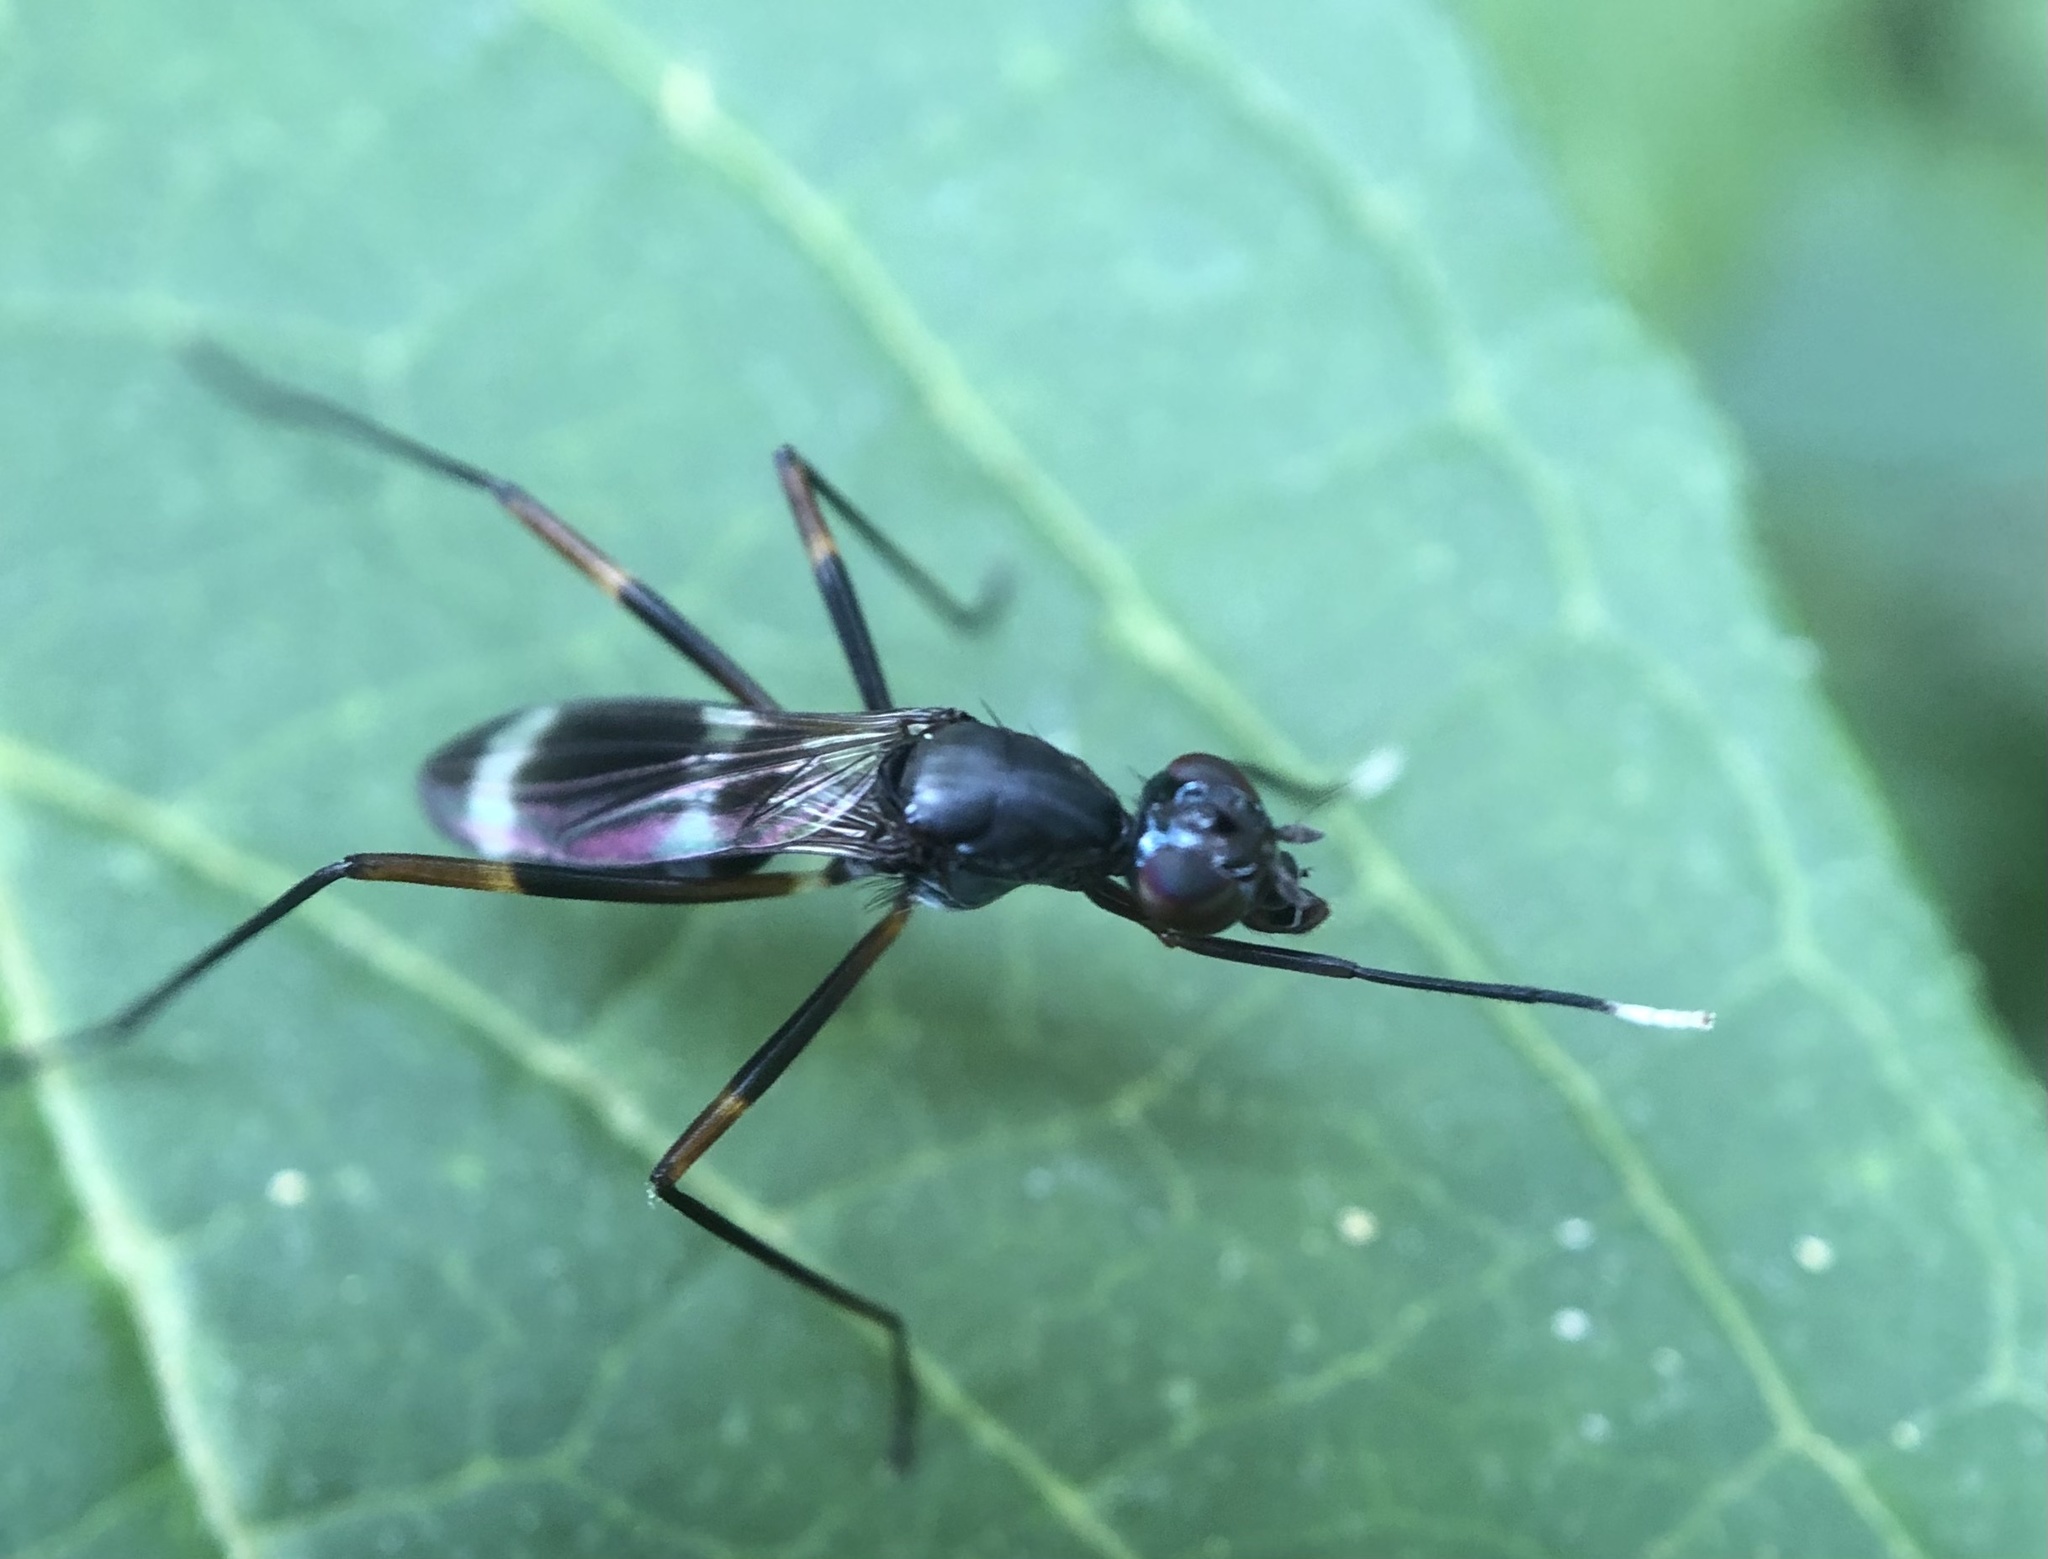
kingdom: Animalia
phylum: Arthropoda
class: Insecta
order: Diptera
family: Micropezidae
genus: Taeniaptera
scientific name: Taeniaptera trivittata
